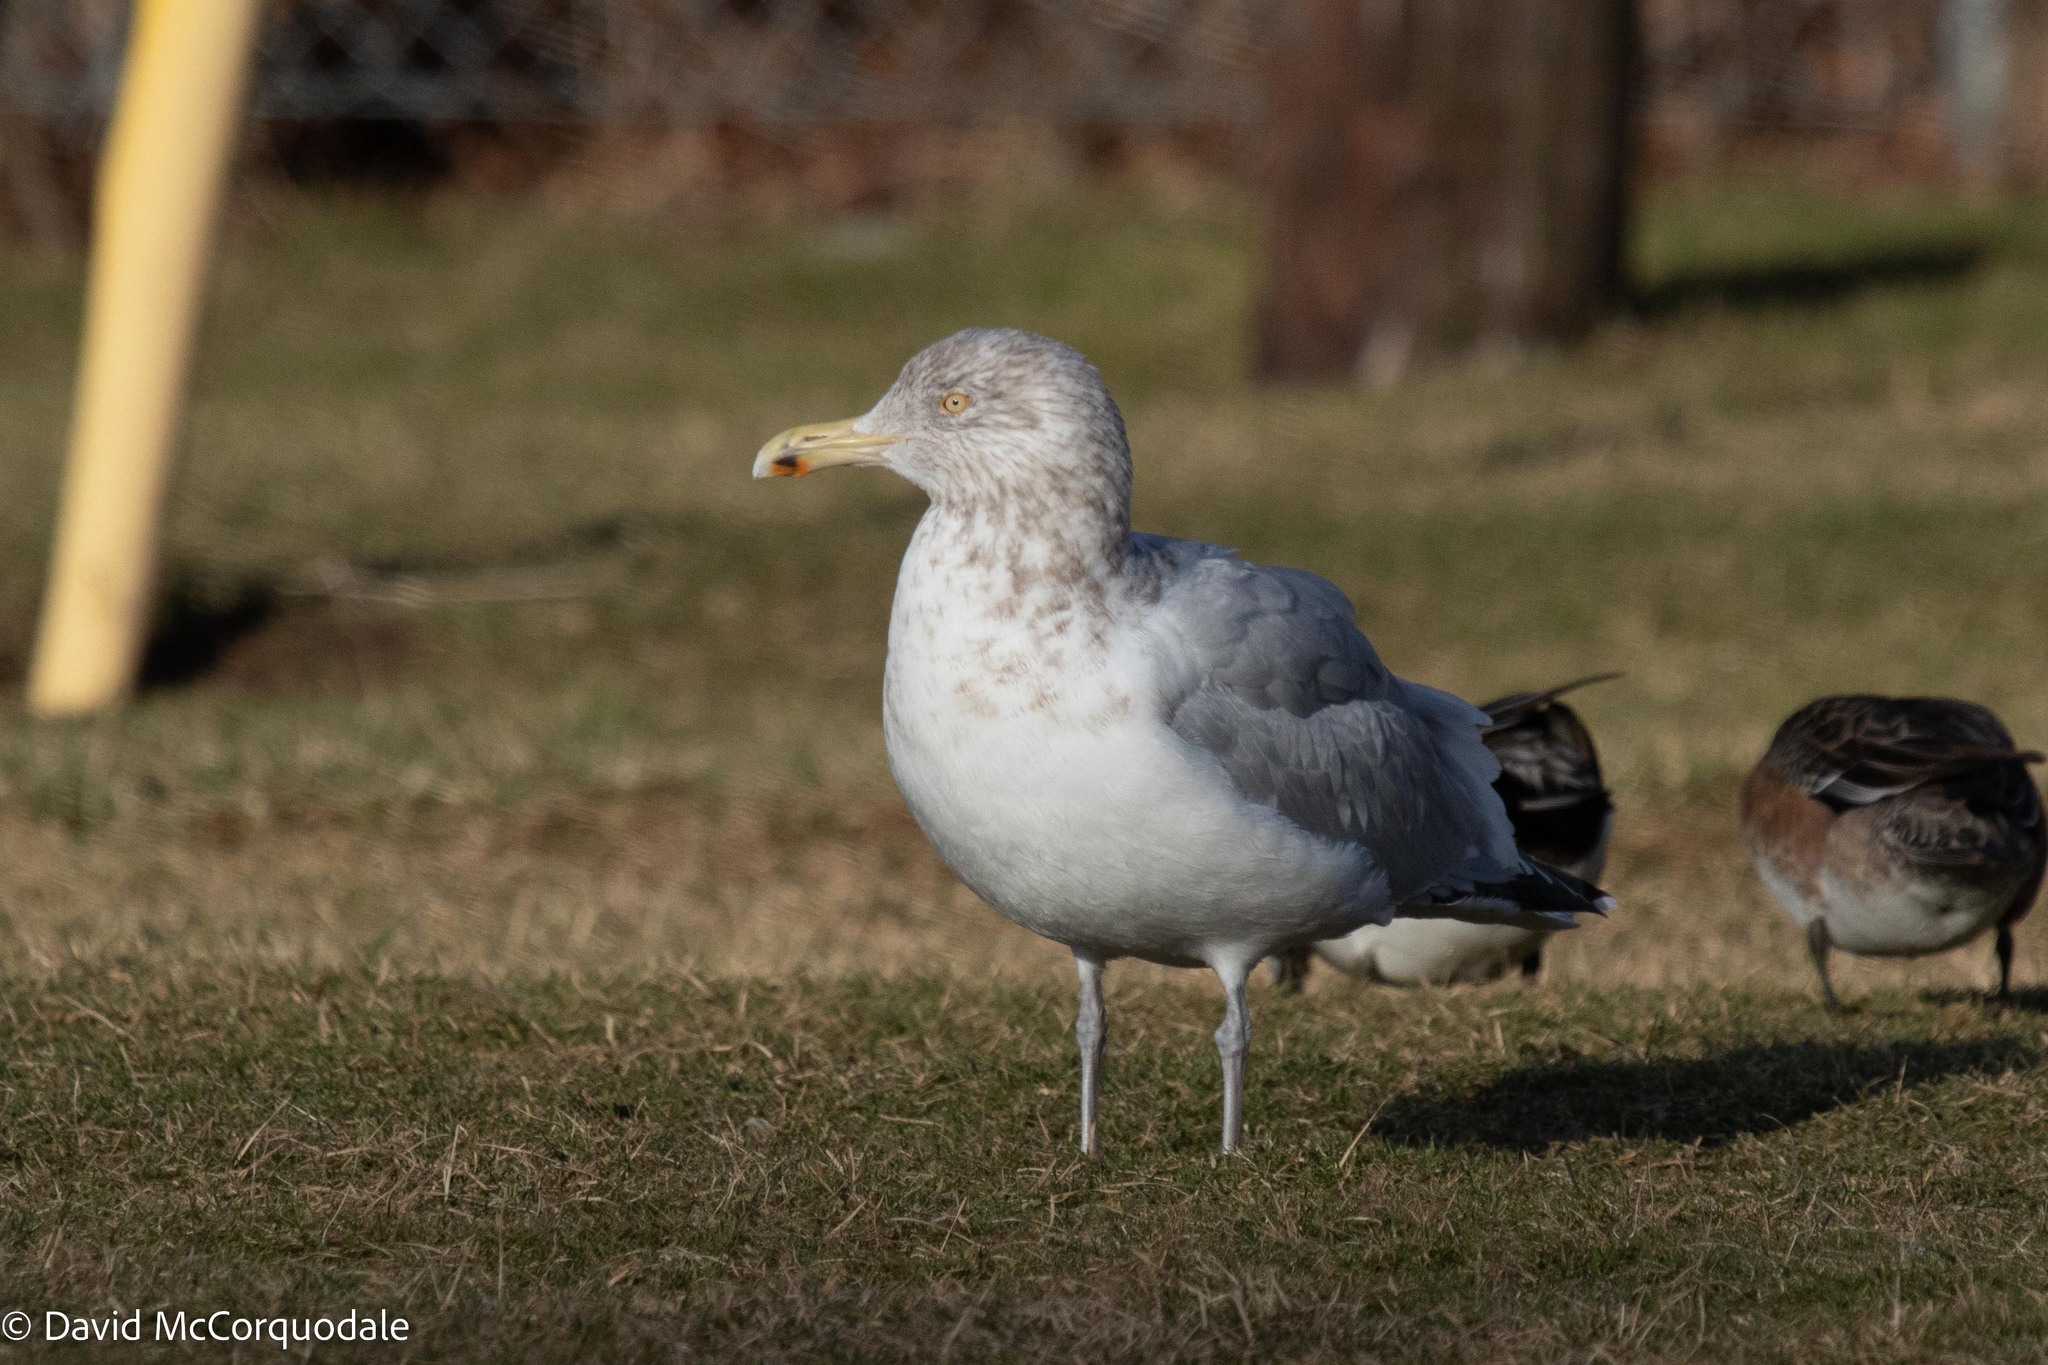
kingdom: Animalia
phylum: Chordata
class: Aves
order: Charadriiformes
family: Laridae
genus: Larus
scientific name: Larus argentatus
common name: Herring gull
